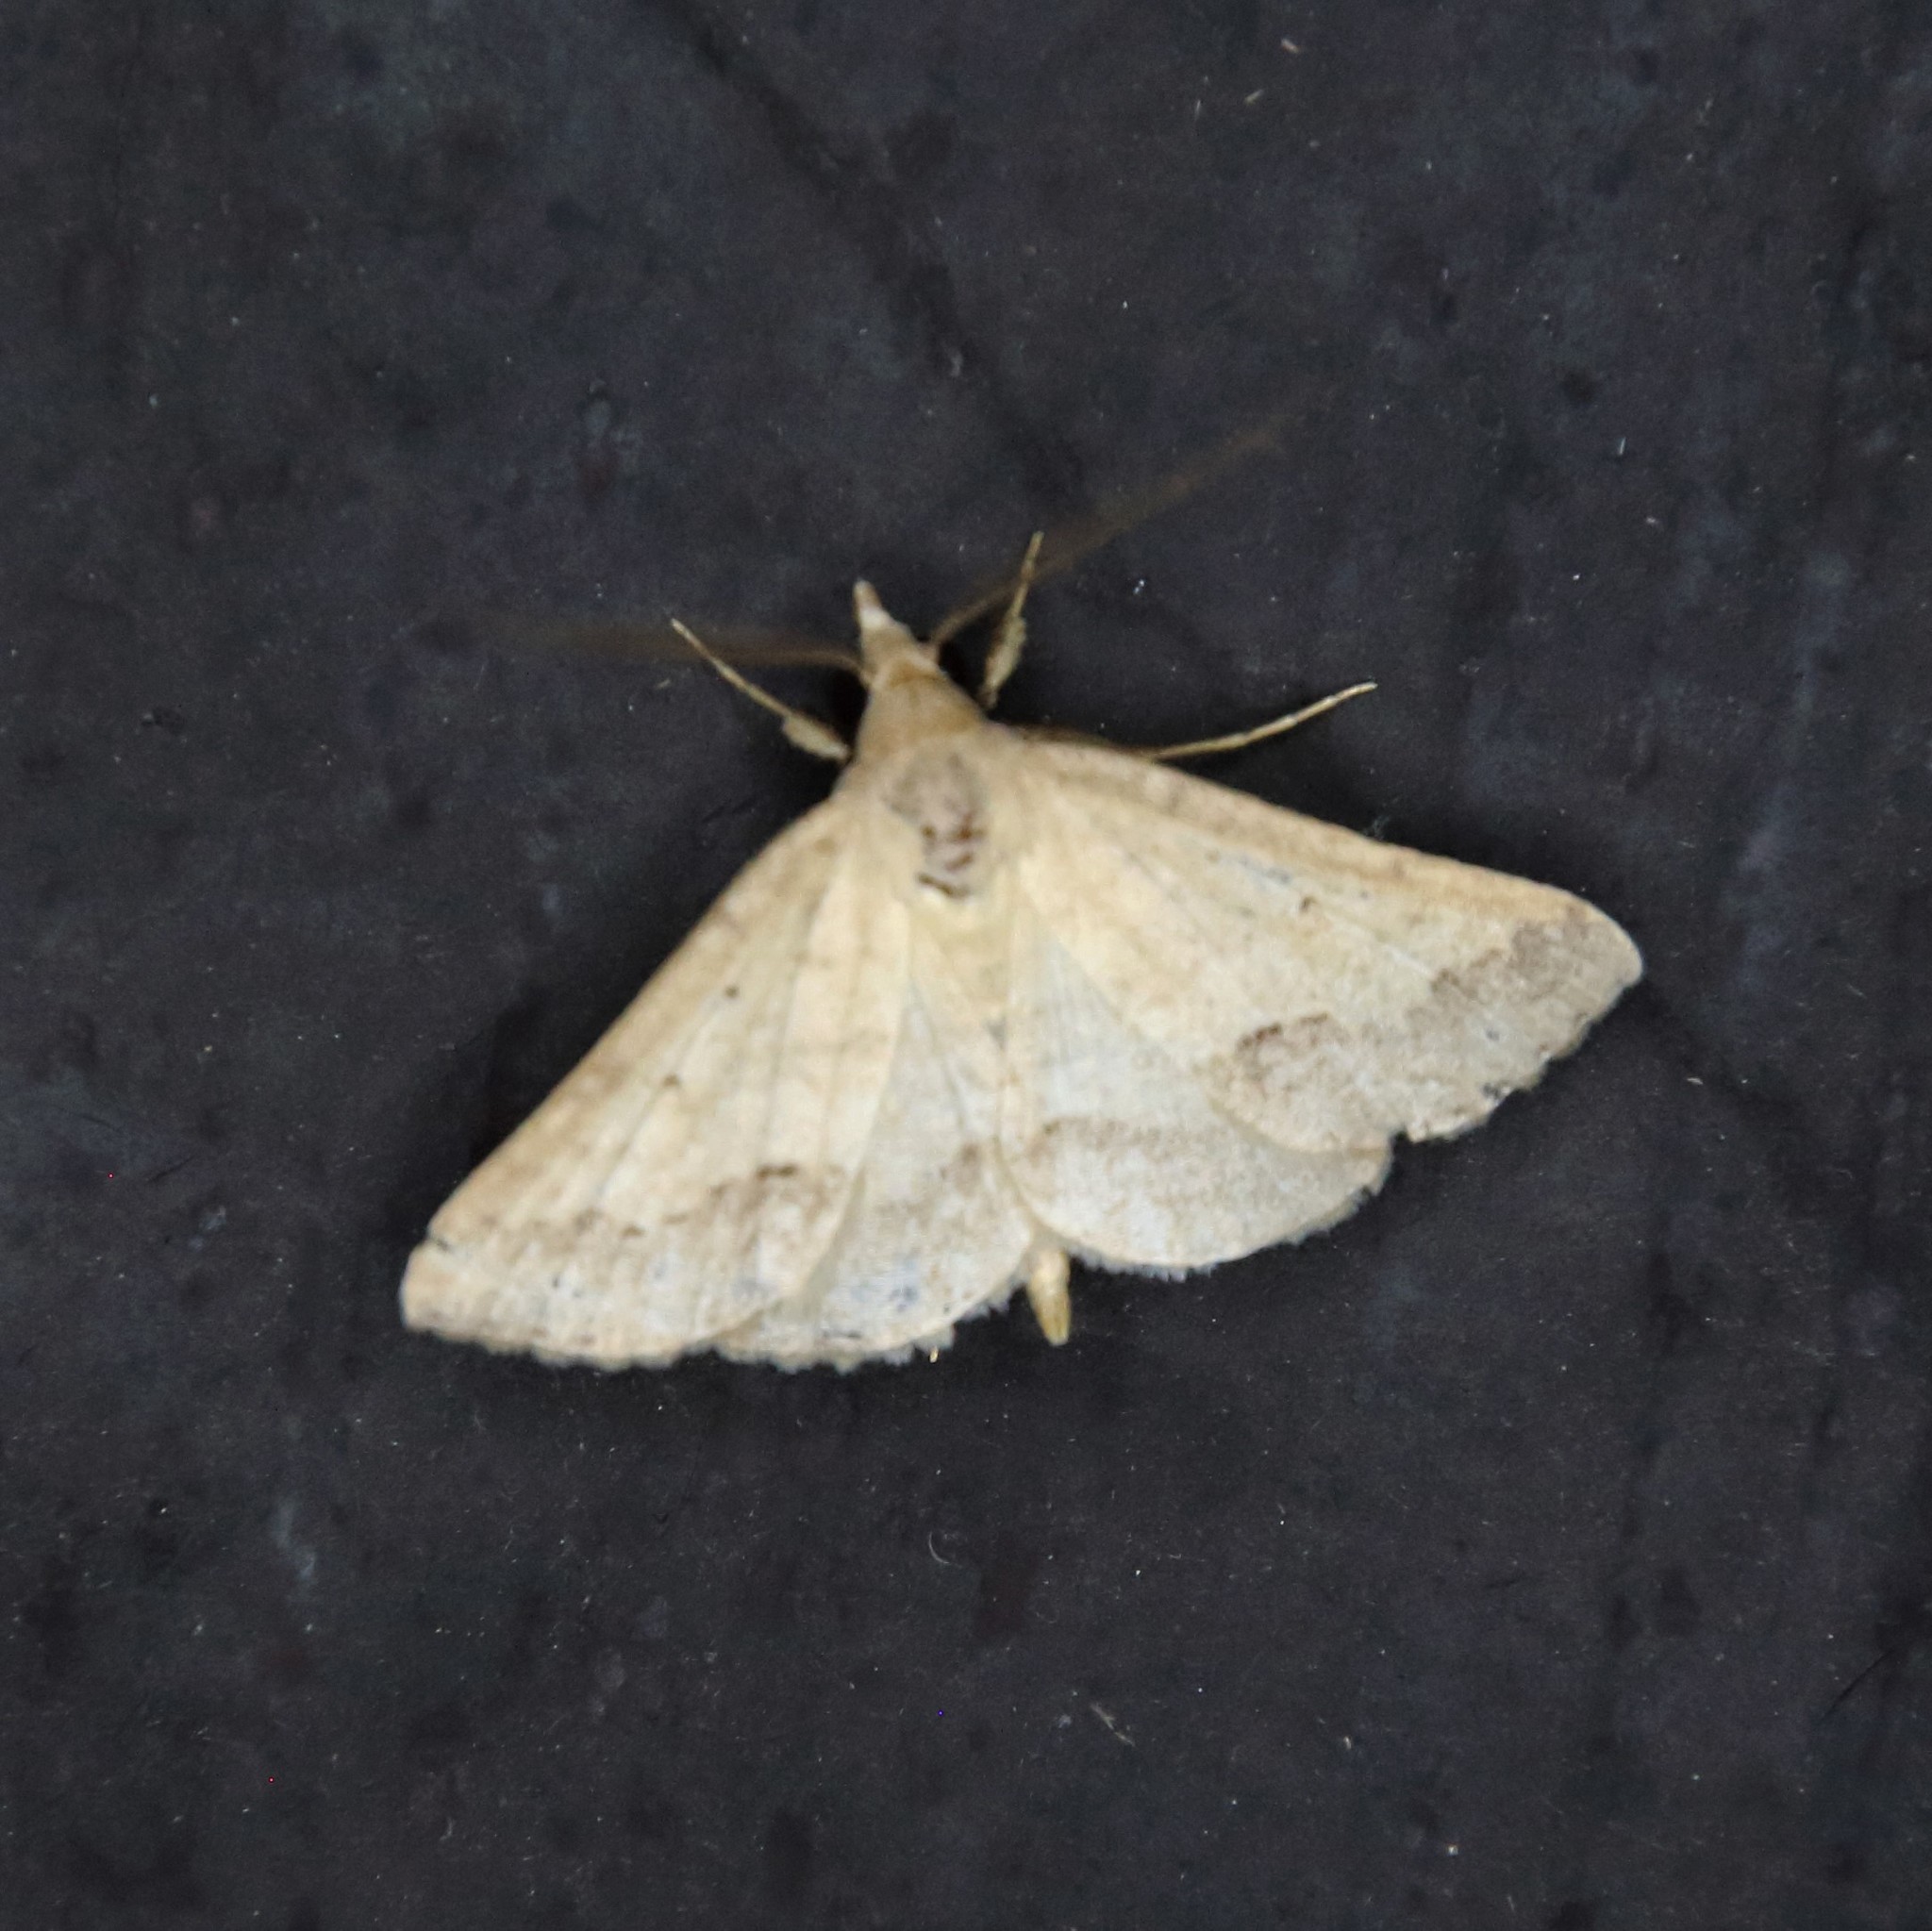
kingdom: Animalia
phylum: Arthropoda
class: Insecta
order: Lepidoptera
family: Erebidae
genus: Gesonia
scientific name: Gesonia obeditalis
